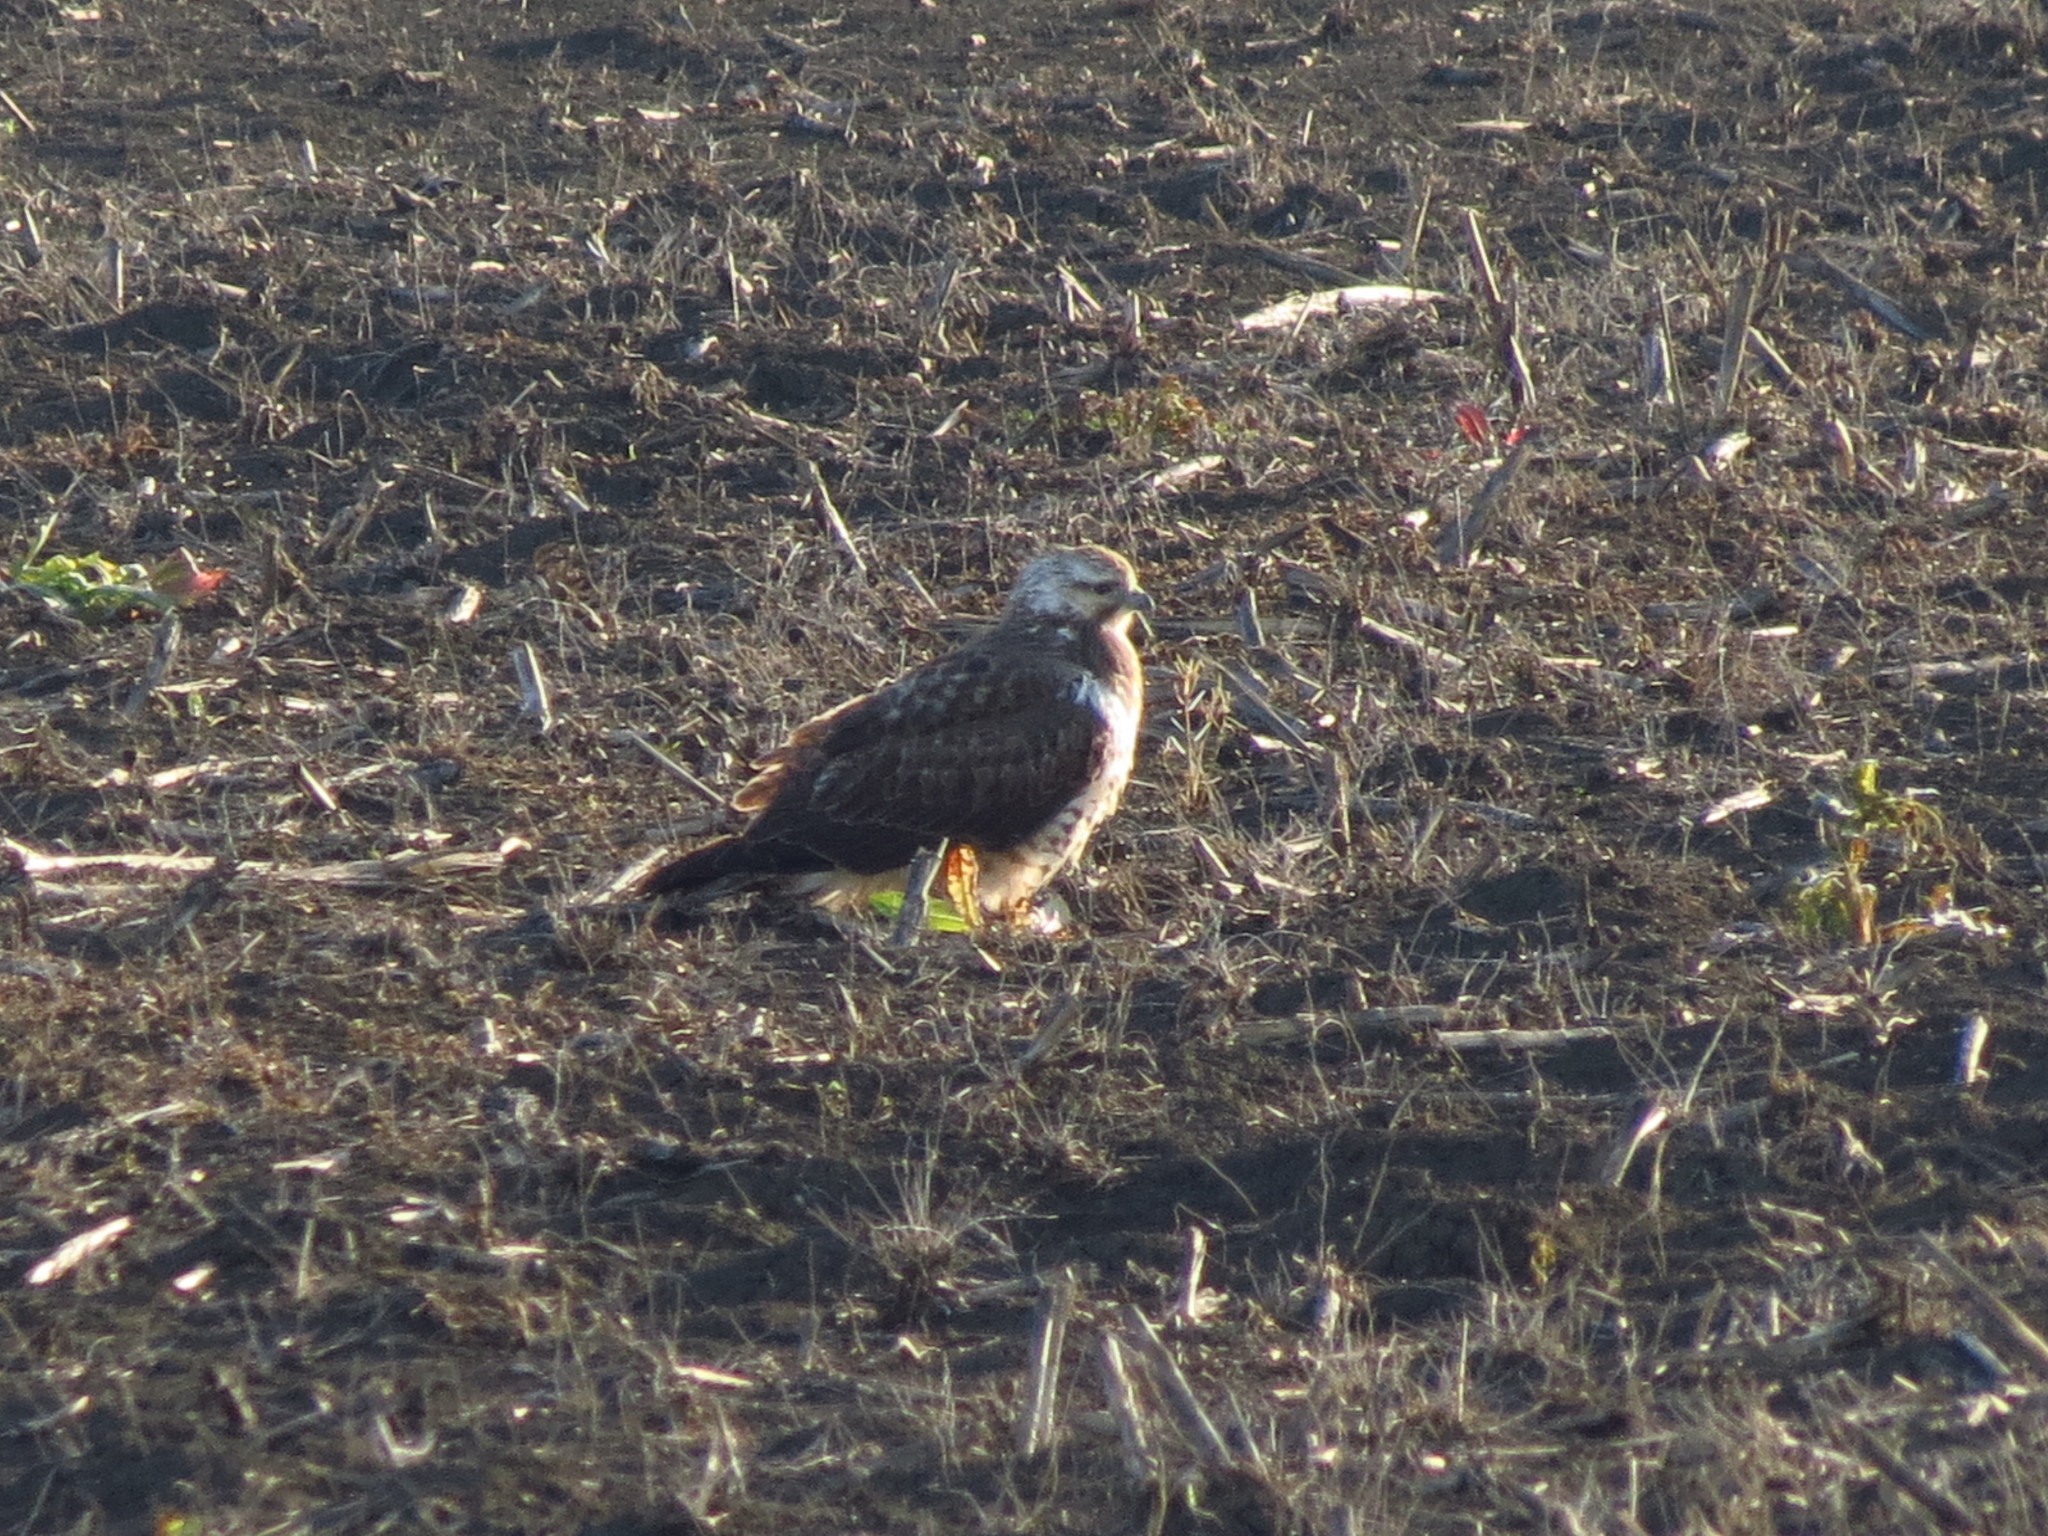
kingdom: Animalia
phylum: Chordata
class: Aves
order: Accipitriformes
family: Accipitridae
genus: Buteo
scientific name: Buteo swainsoni
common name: Swainson's hawk
